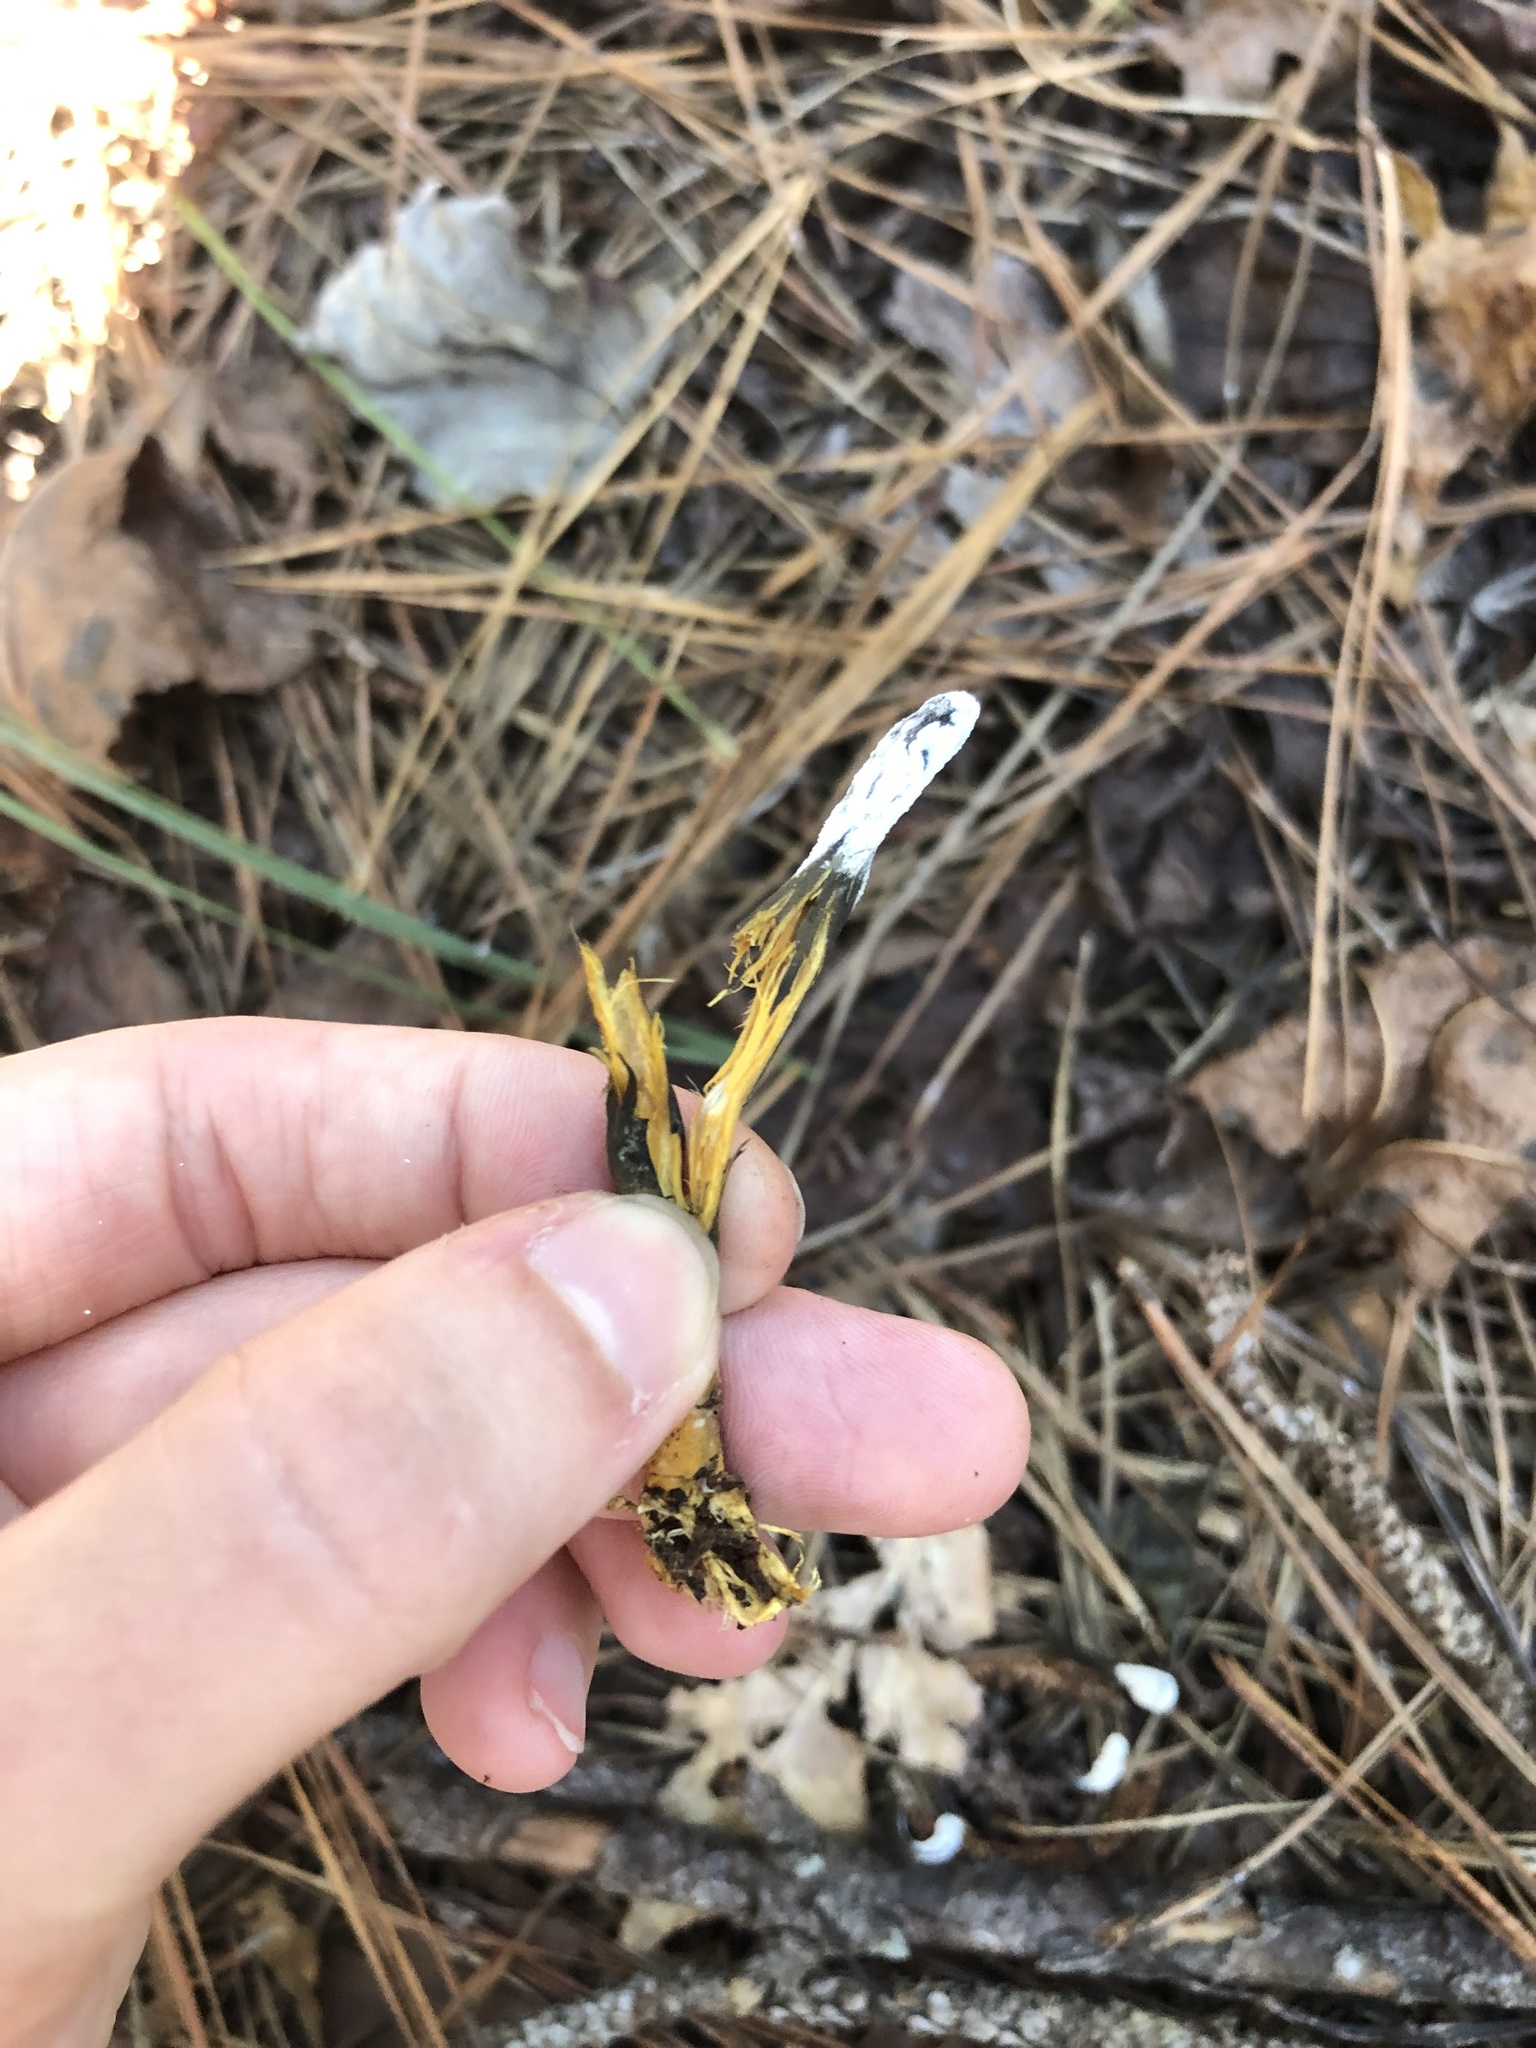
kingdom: Fungi
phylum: Ascomycota
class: Sordariomycetes
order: Hypocreales
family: Hypocreaceae
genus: Hypomyces
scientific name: Hypomyces papulasporae
